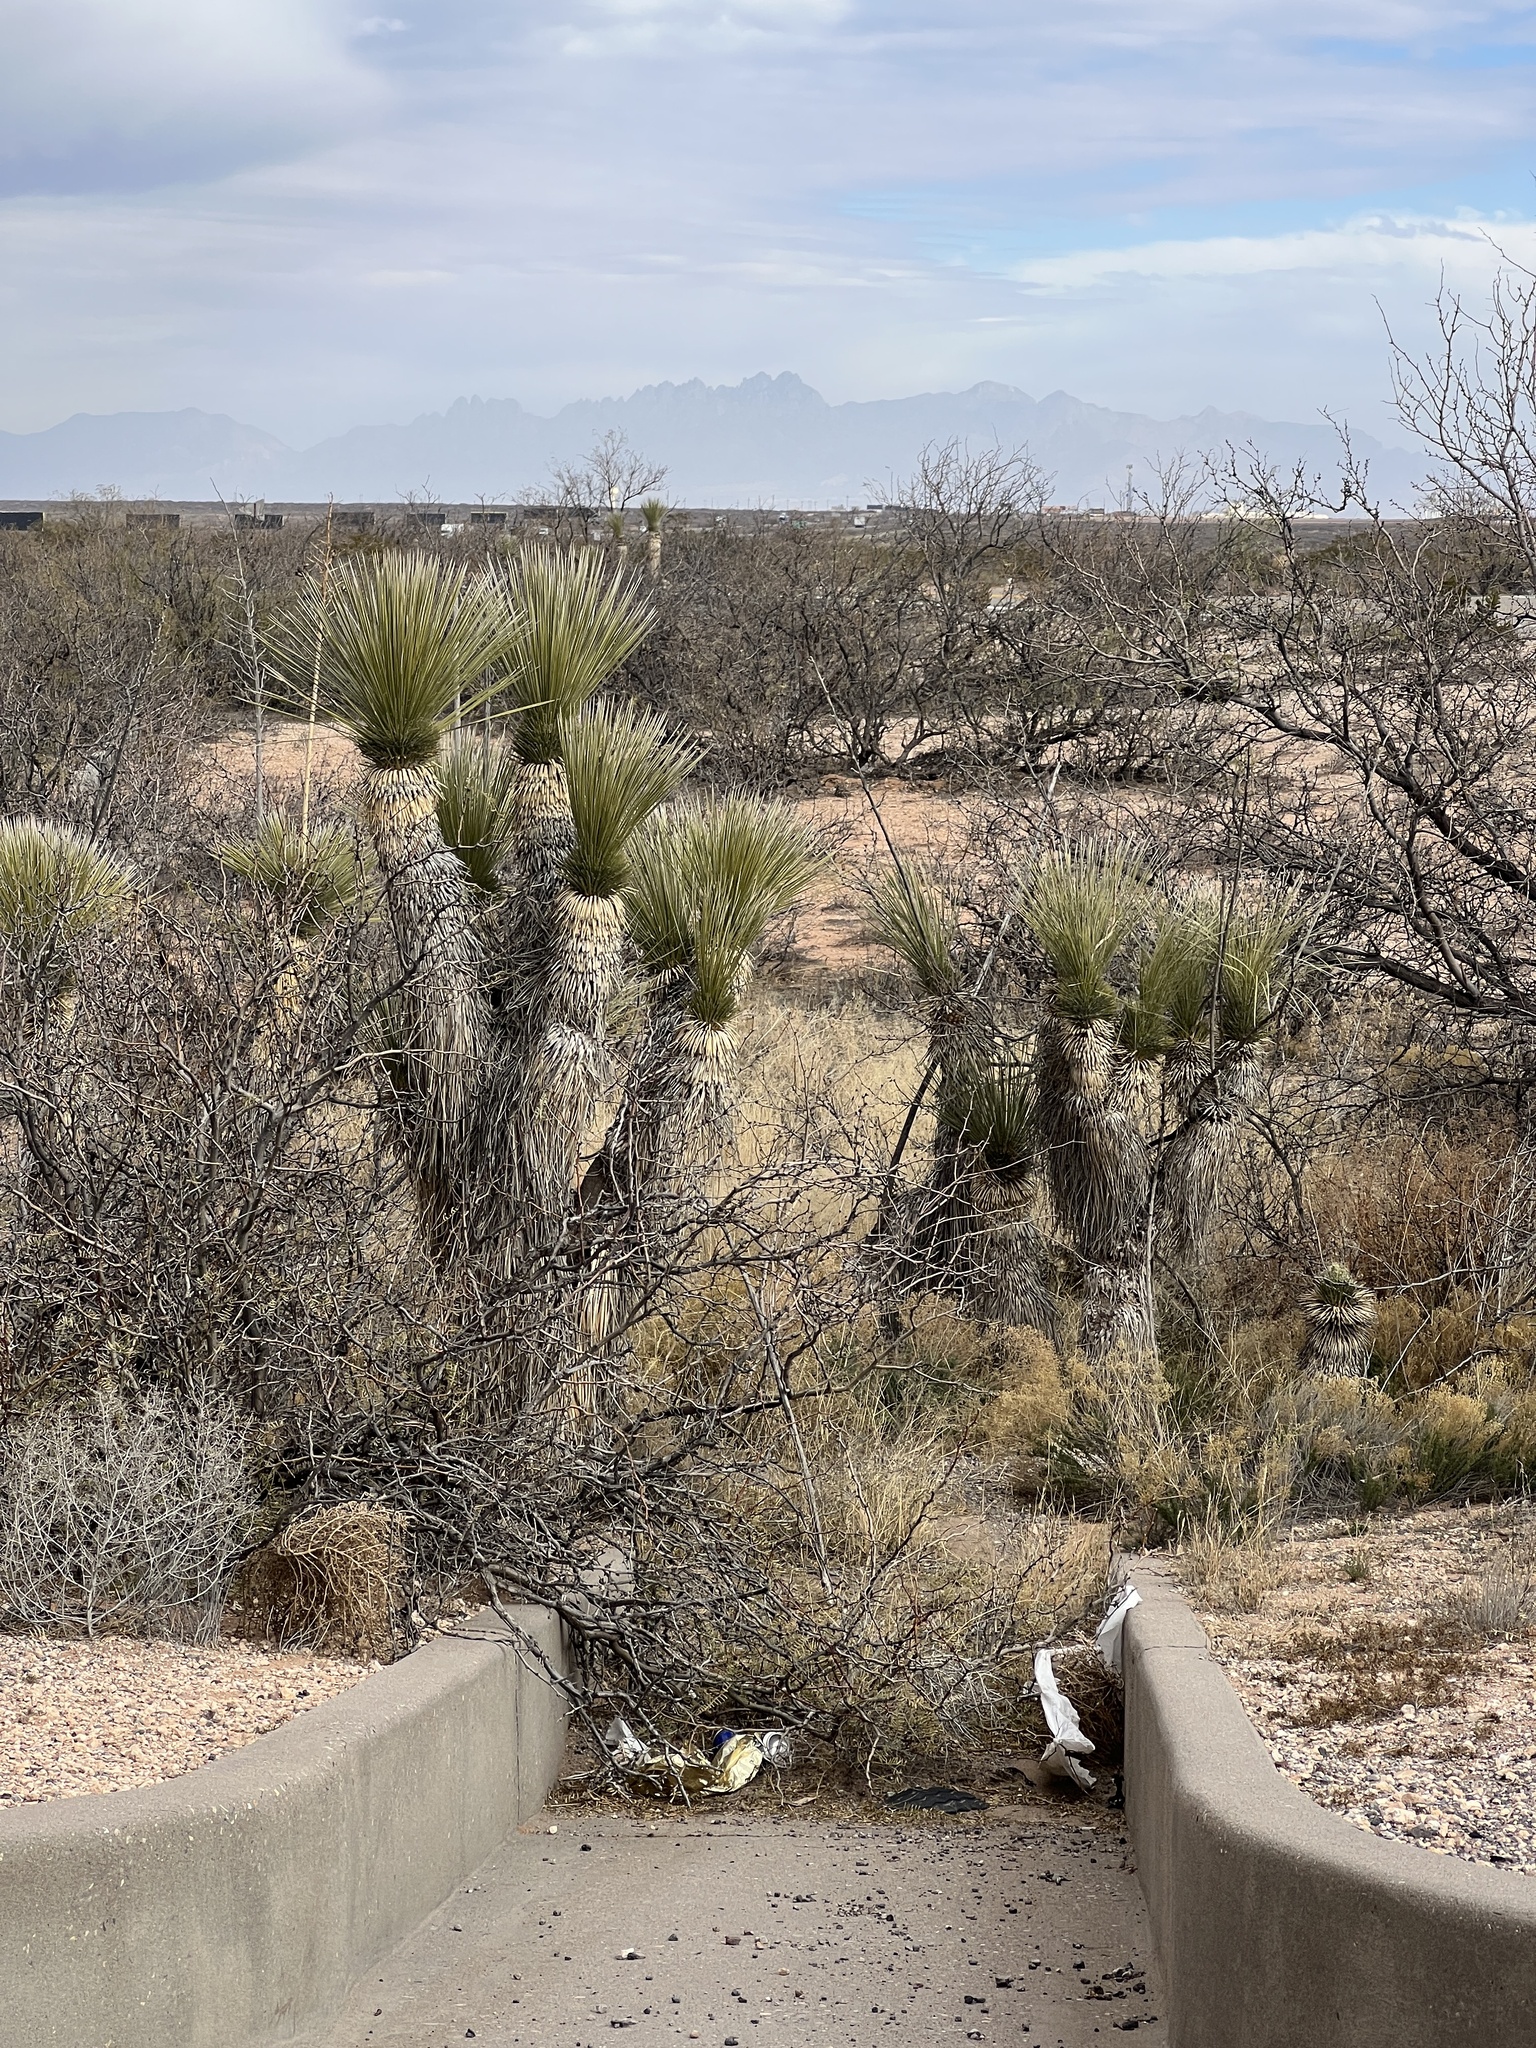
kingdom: Plantae
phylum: Tracheophyta
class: Liliopsida
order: Asparagales
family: Asparagaceae
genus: Yucca
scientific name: Yucca elata
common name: Palmella
